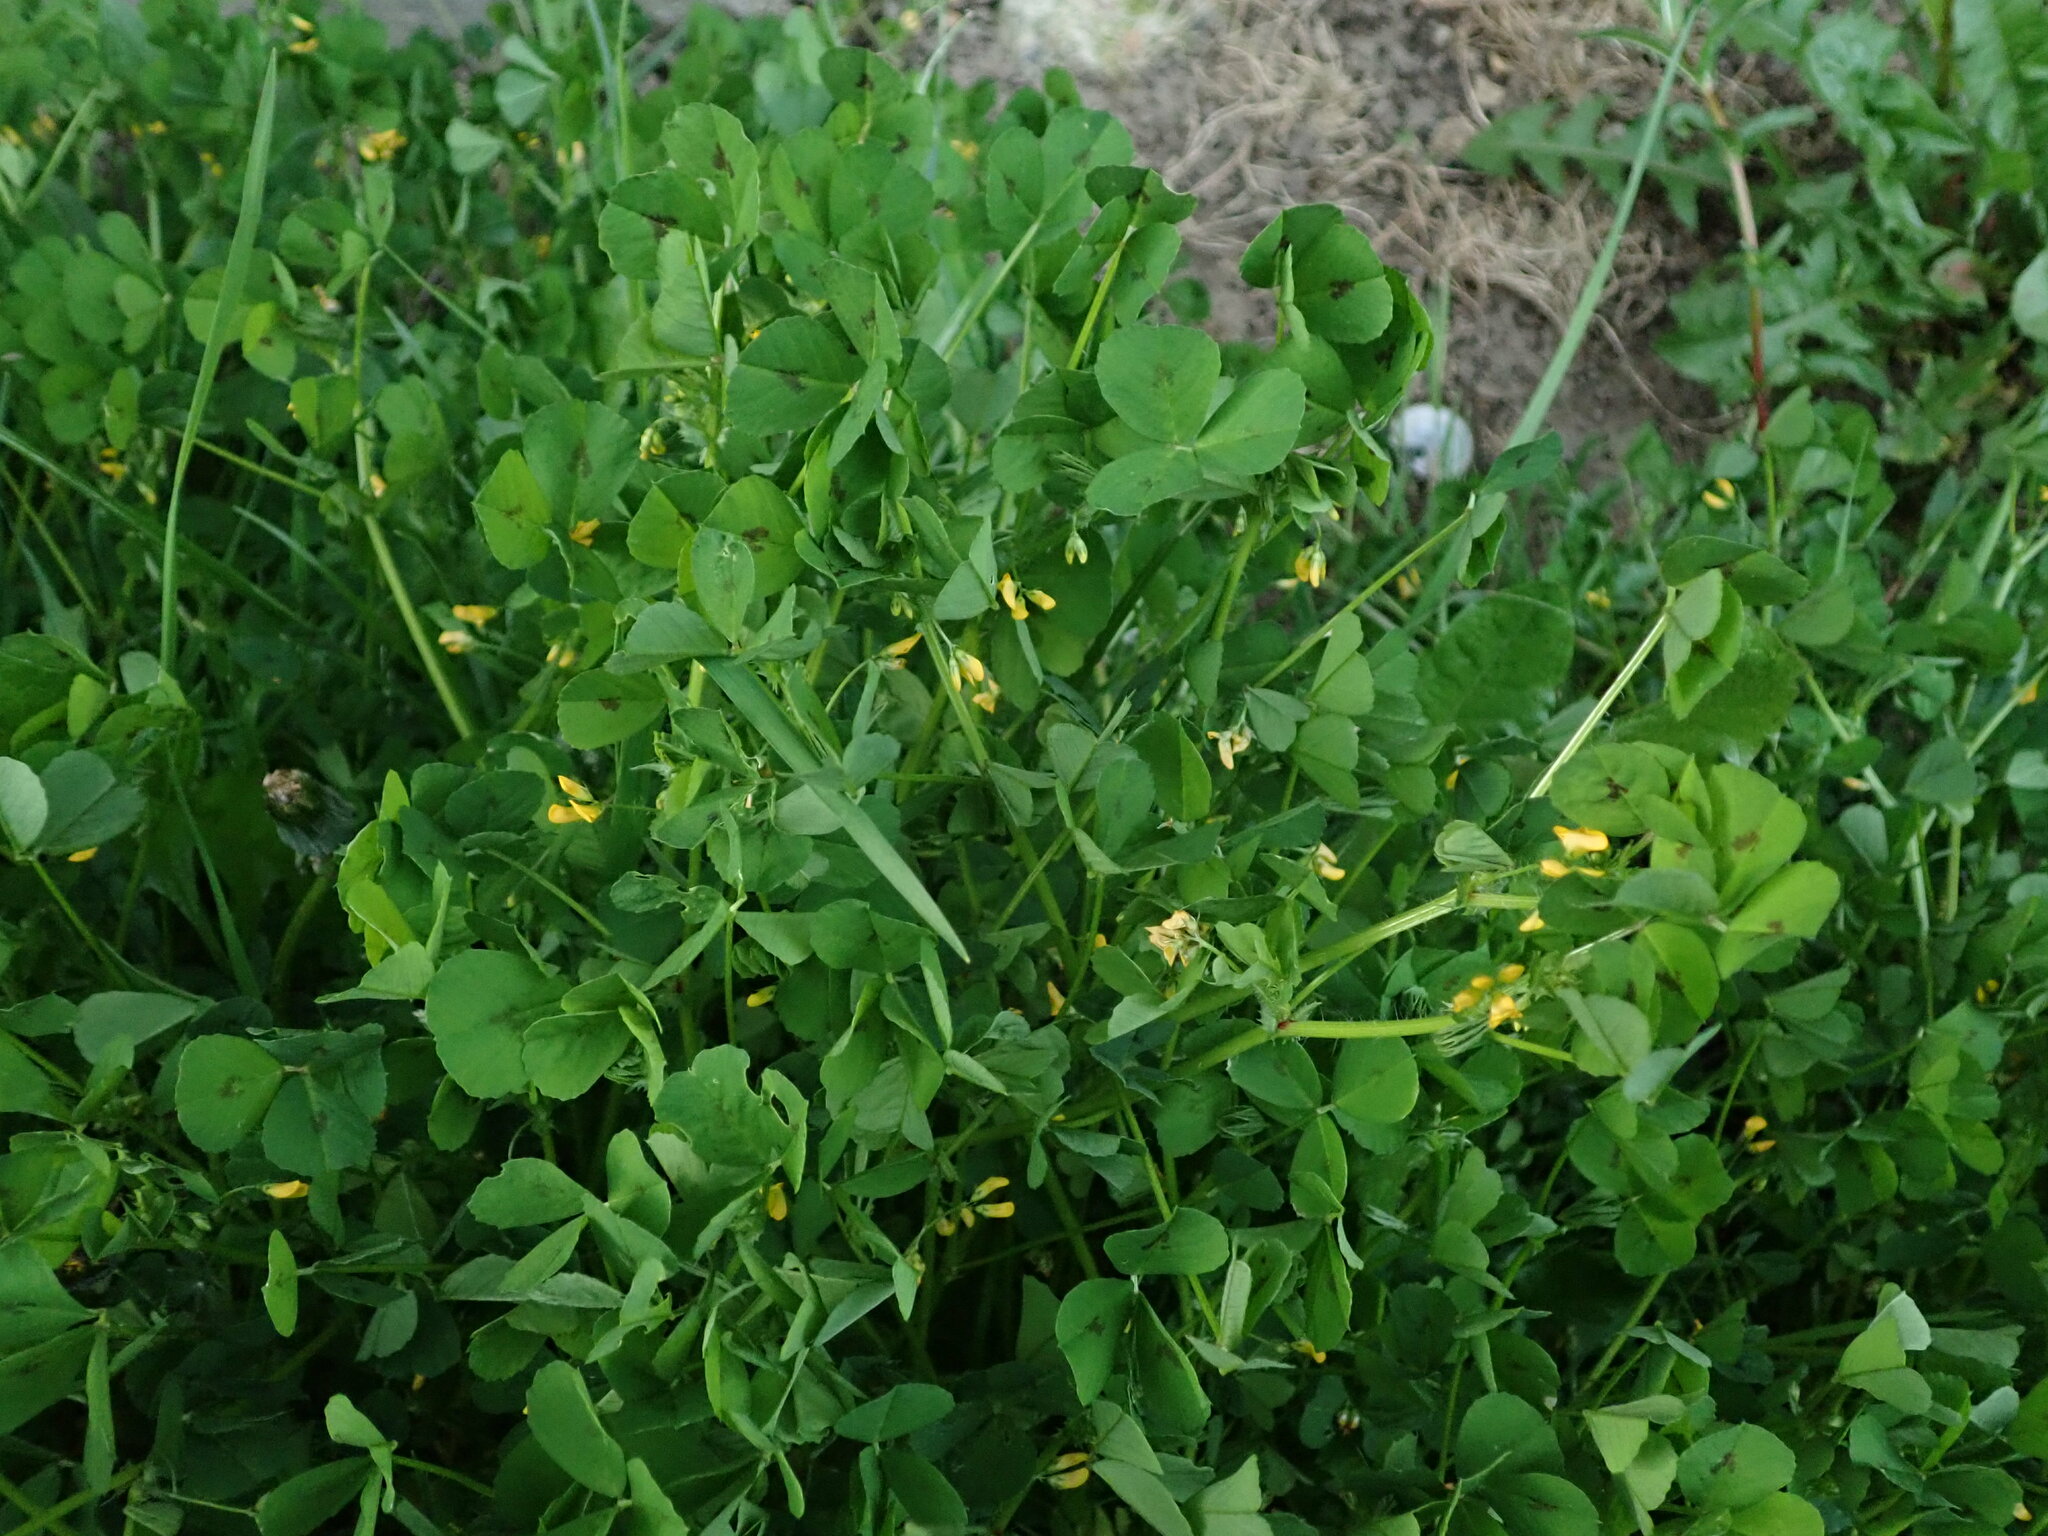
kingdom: Plantae
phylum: Tracheophyta
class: Magnoliopsida
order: Fabales
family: Fabaceae
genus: Medicago
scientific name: Medicago arabica
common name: Spotted medick
